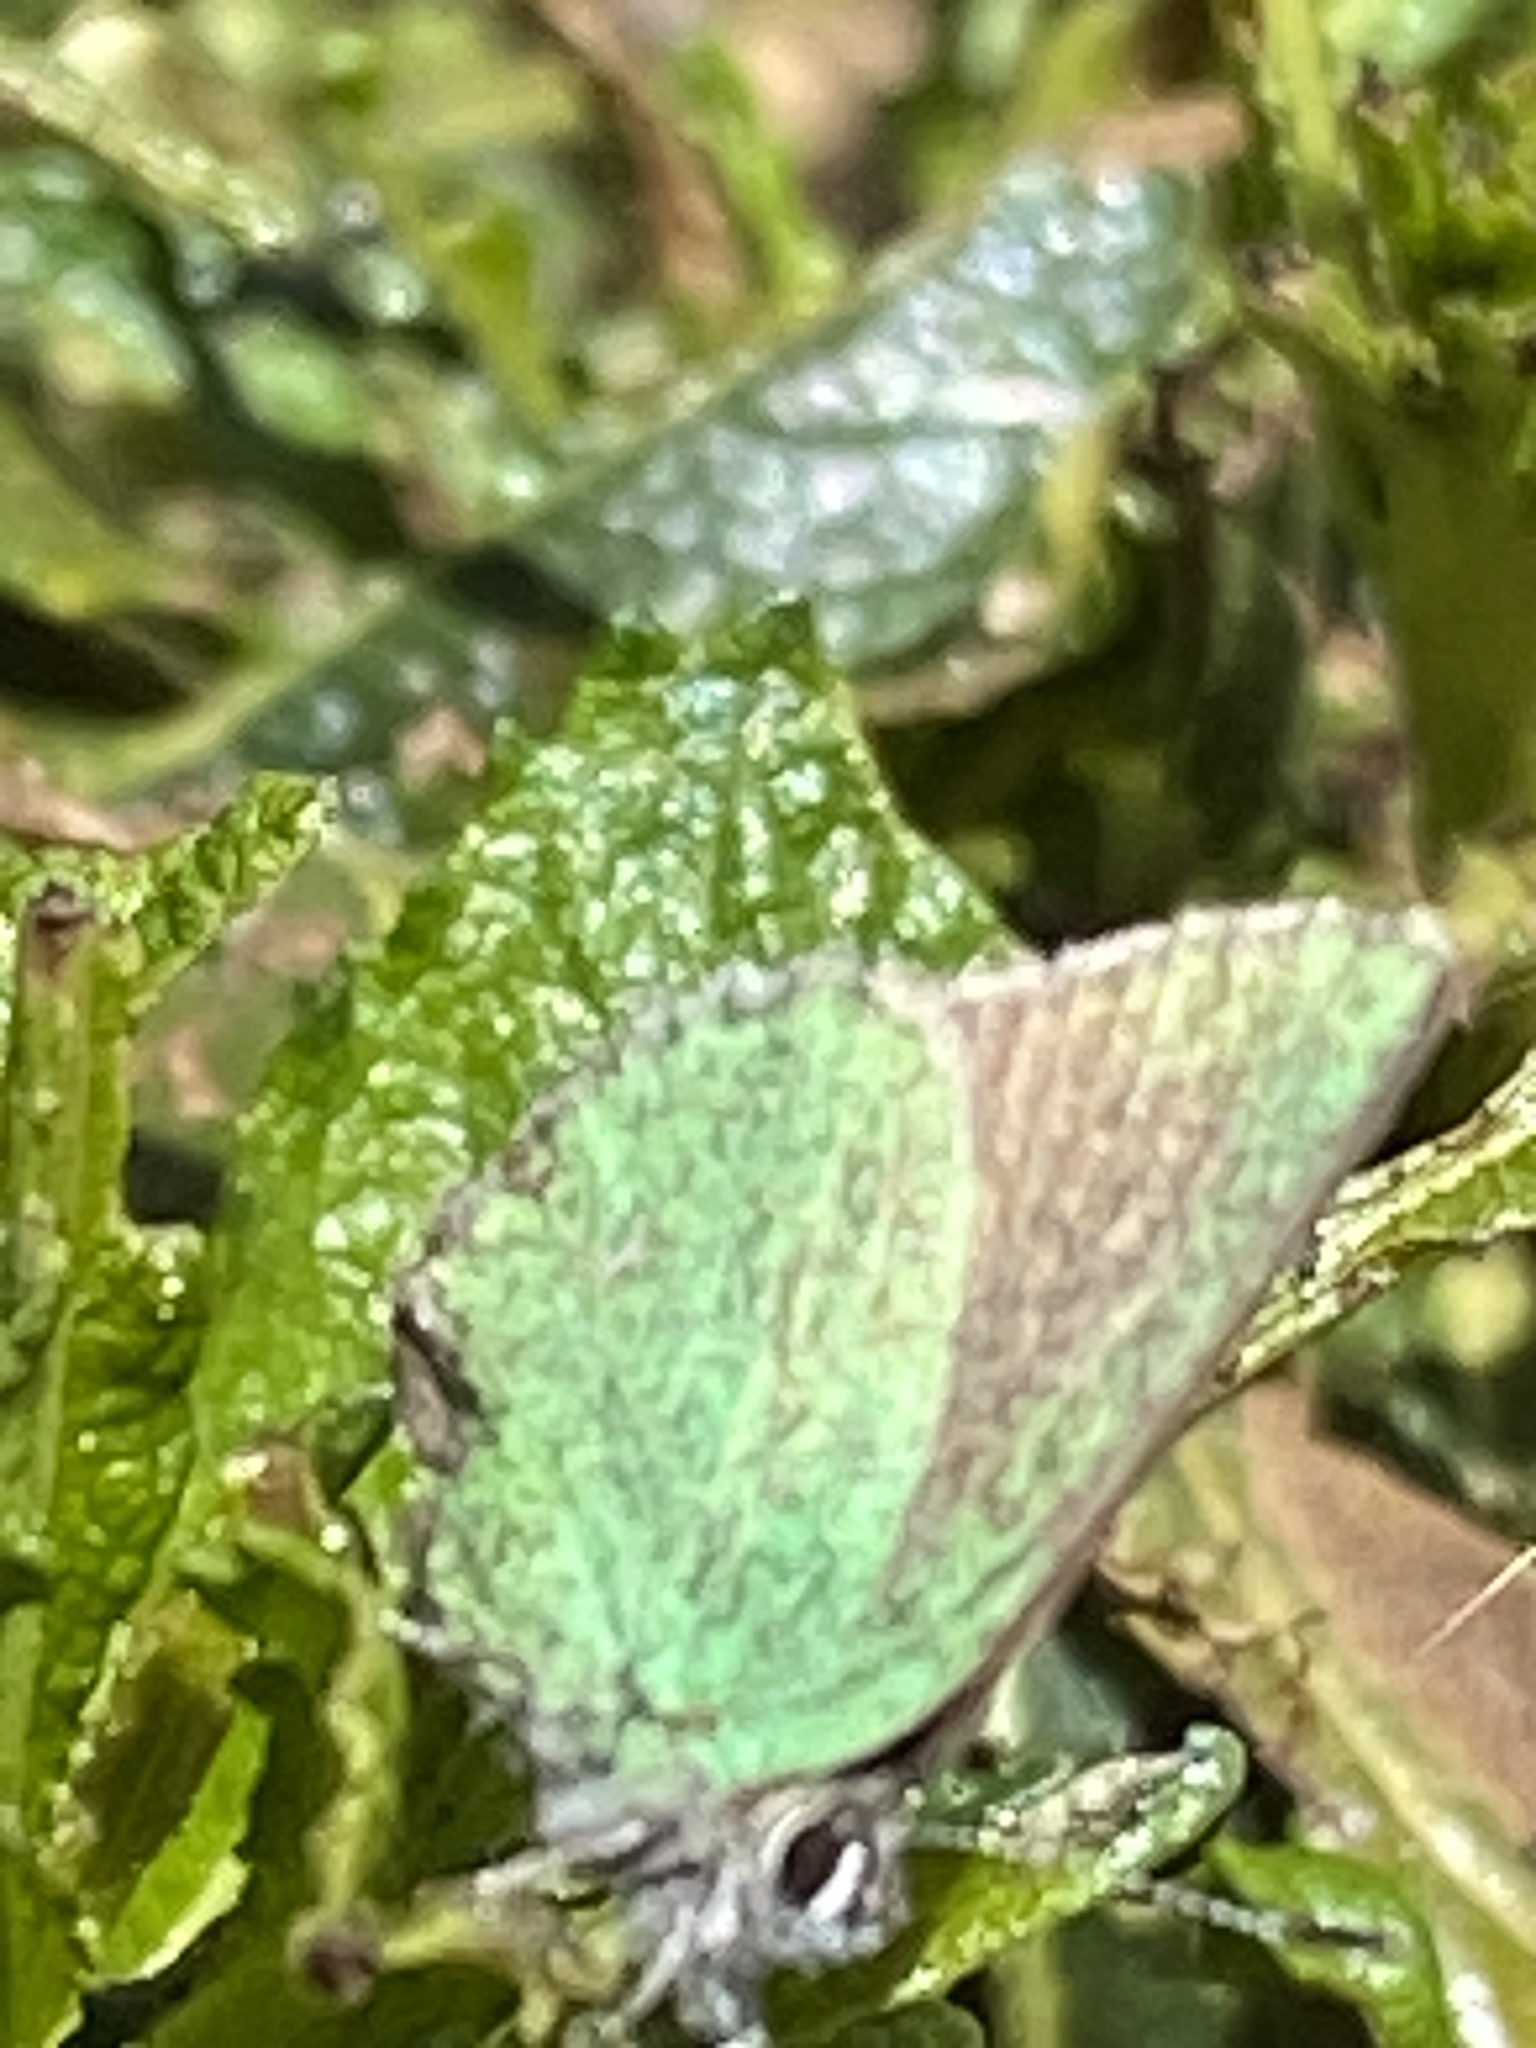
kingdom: Animalia
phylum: Arthropoda
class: Insecta
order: Lepidoptera
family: Lycaenidae
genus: Callophrys
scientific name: Callophrys dumetorum
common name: Bramble hairstreak
